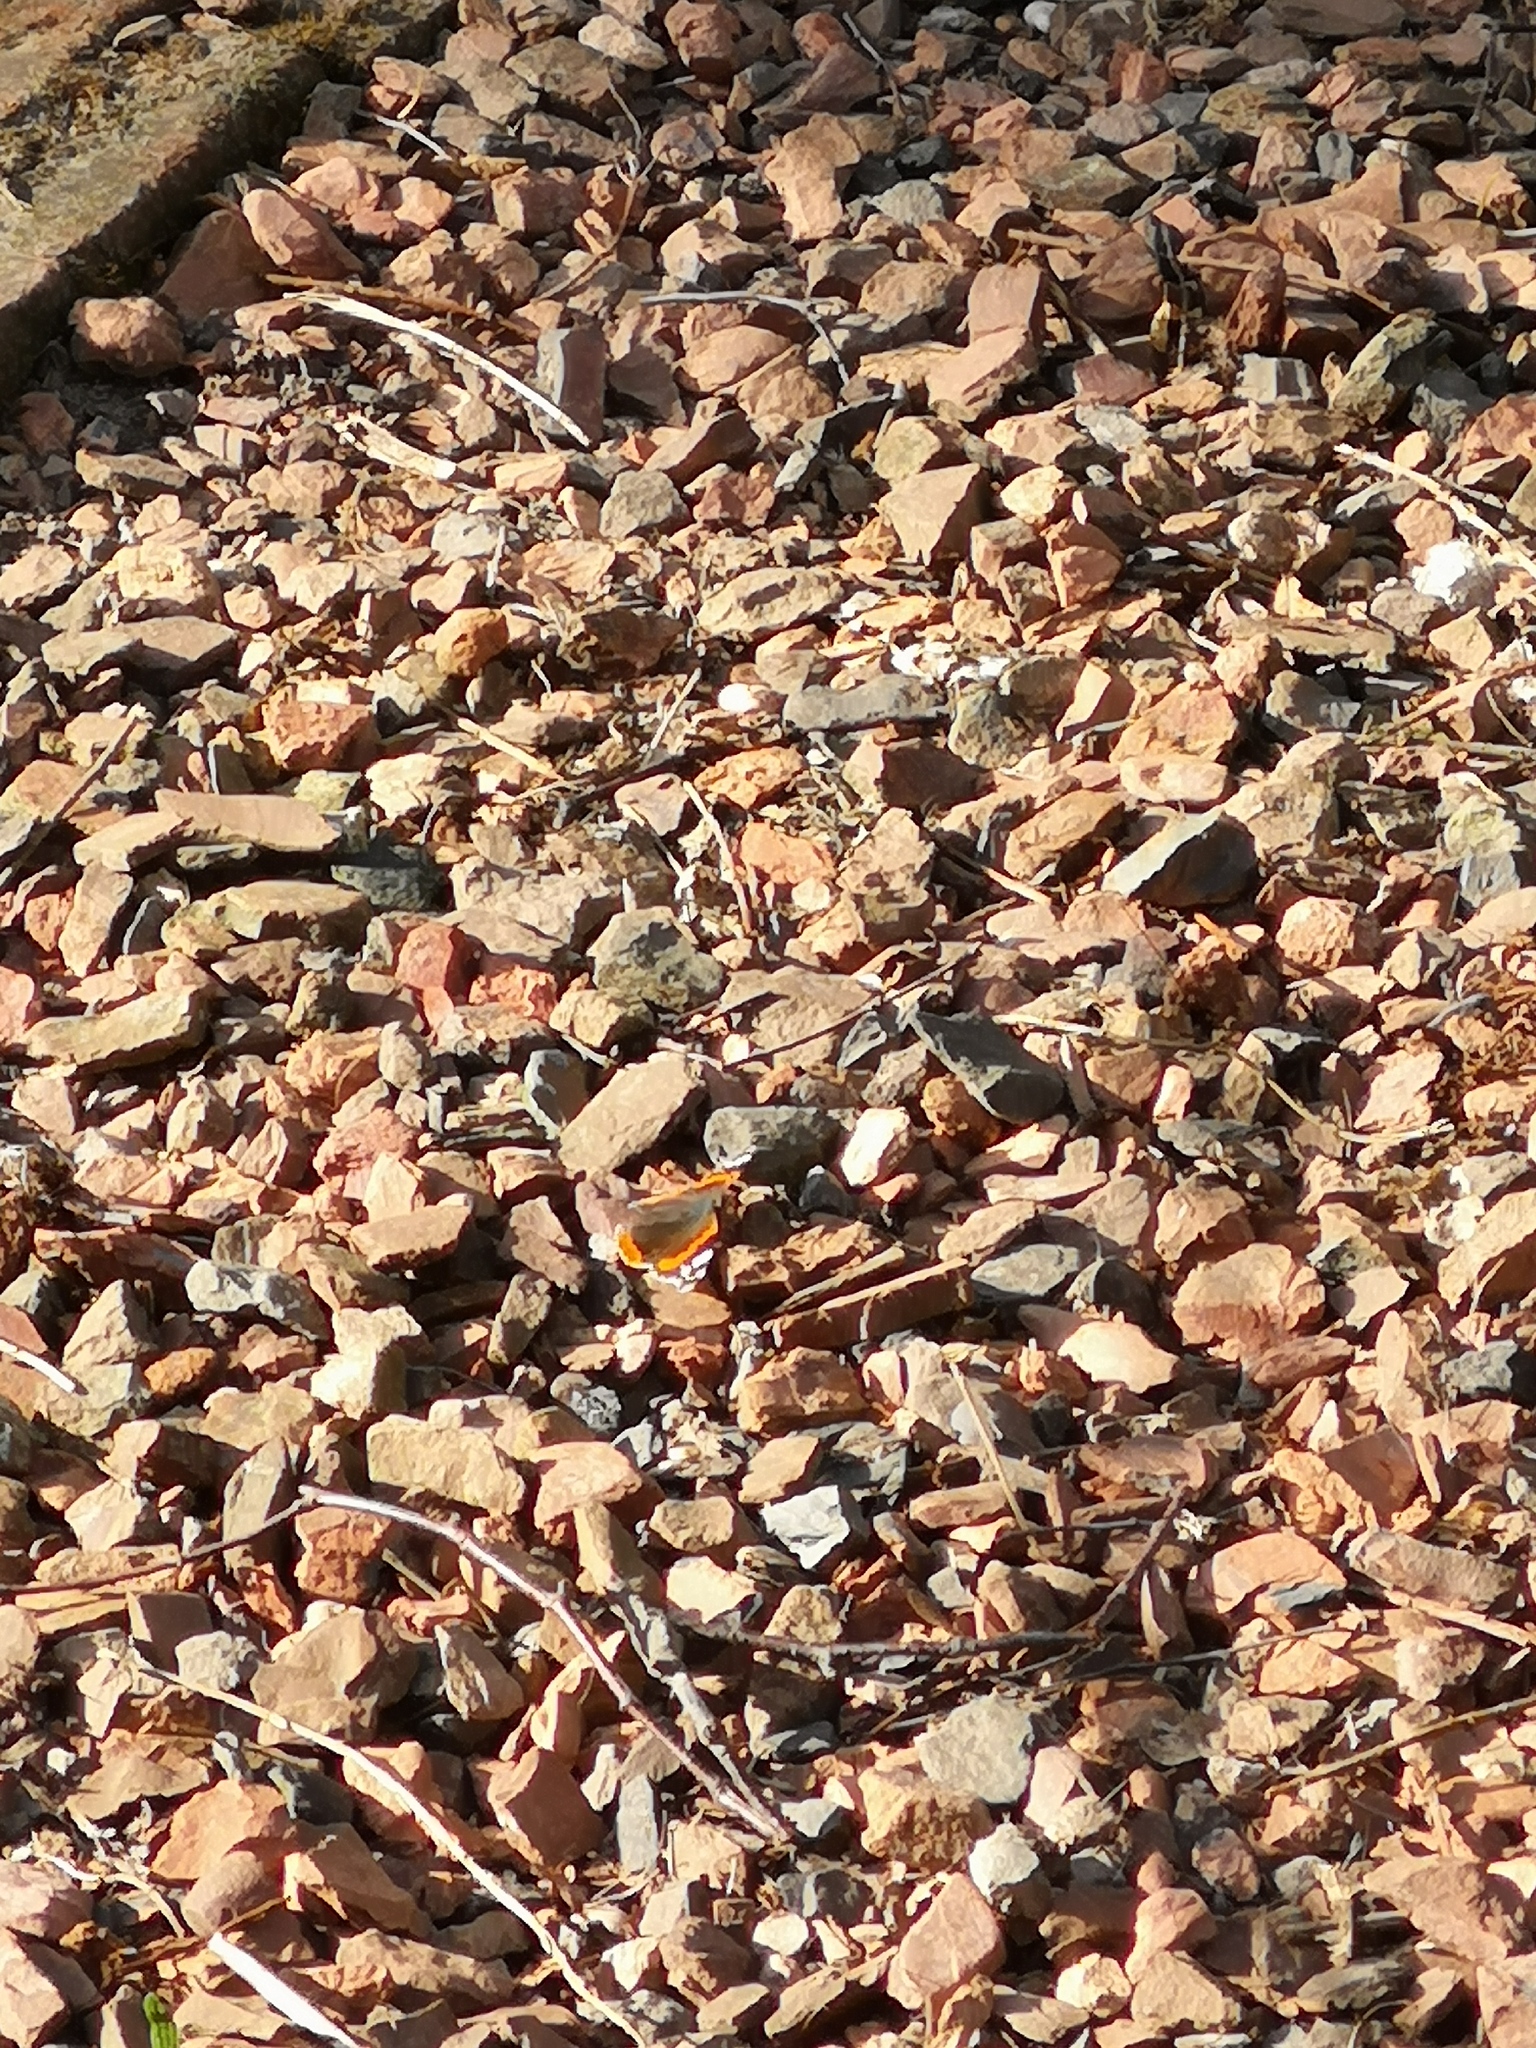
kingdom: Animalia
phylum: Arthropoda
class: Insecta
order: Lepidoptera
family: Nymphalidae
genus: Vanessa
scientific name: Vanessa atalanta
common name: Red admiral
